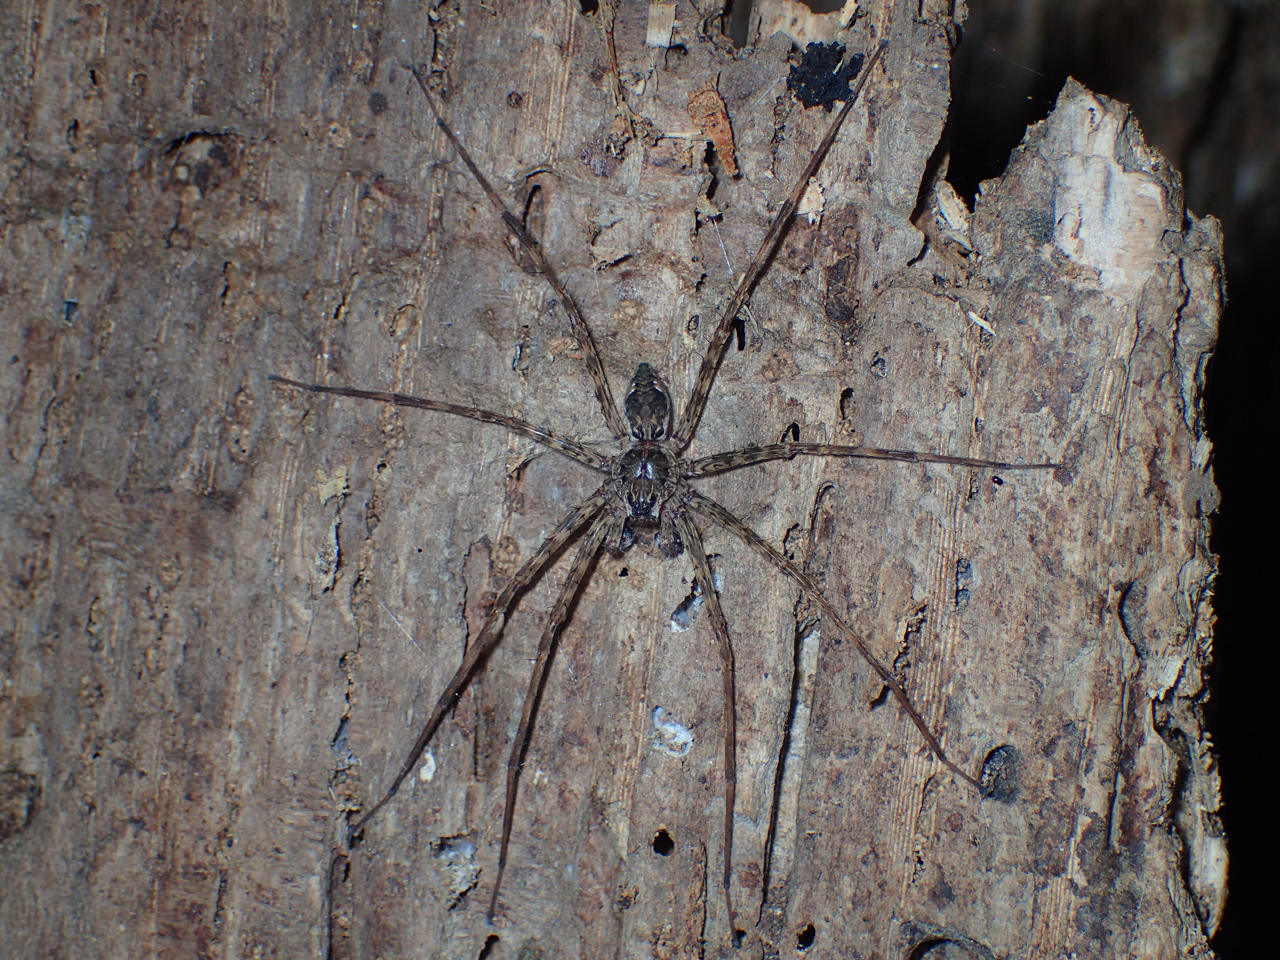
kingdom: Animalia
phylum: Arthropoda
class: Arachnida
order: Araneae
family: Pisauridae
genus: Dolomedes
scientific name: Dolomedes tenebrosus
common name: Dark fishing spider
